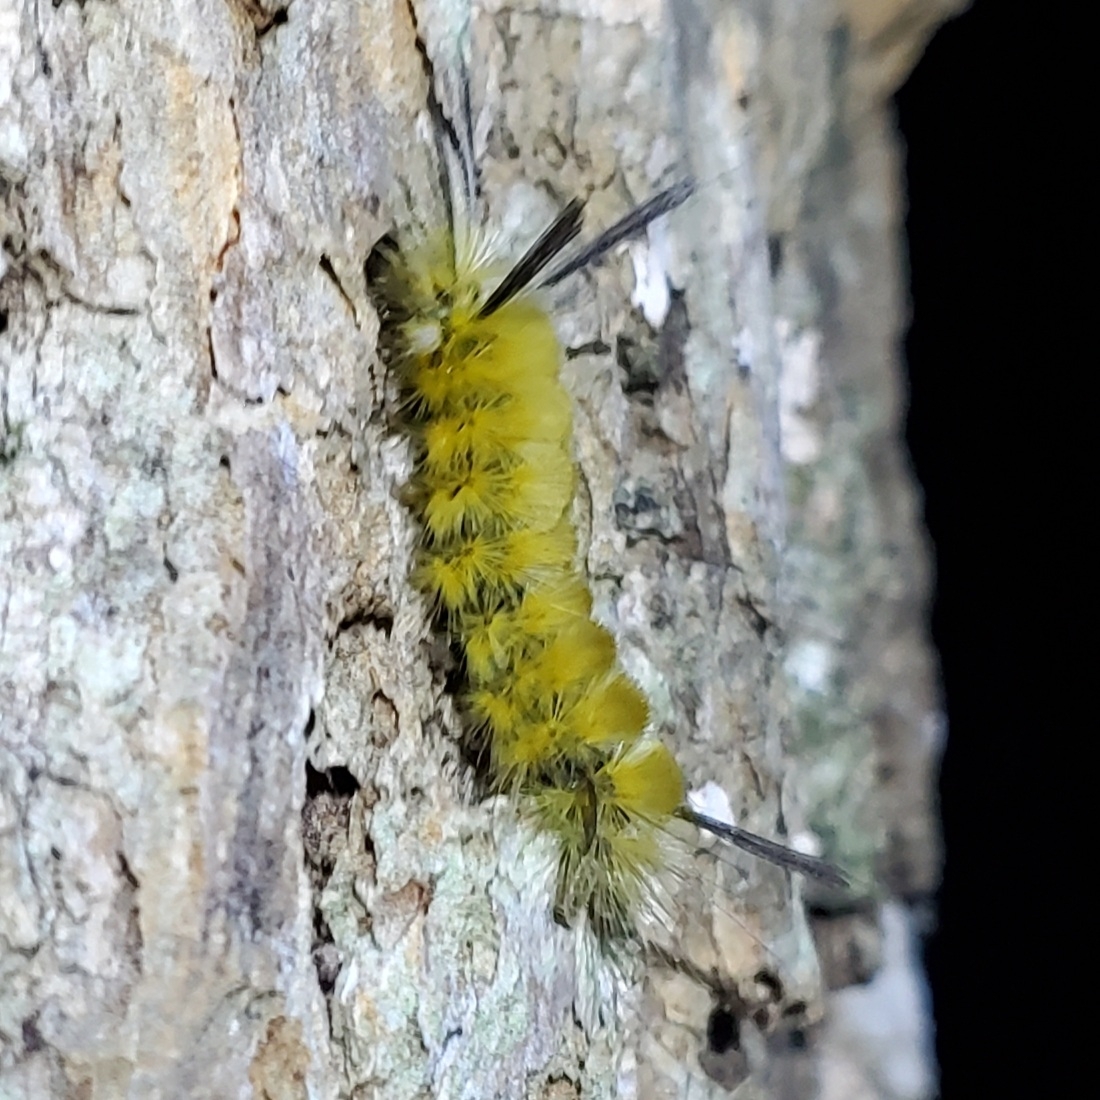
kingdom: Animalia
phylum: Arthropoda
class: Insecta
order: Lepidoptera
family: Erebidae
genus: Halysidota
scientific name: Halysidota tessellaris
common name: Banded tussock moth
